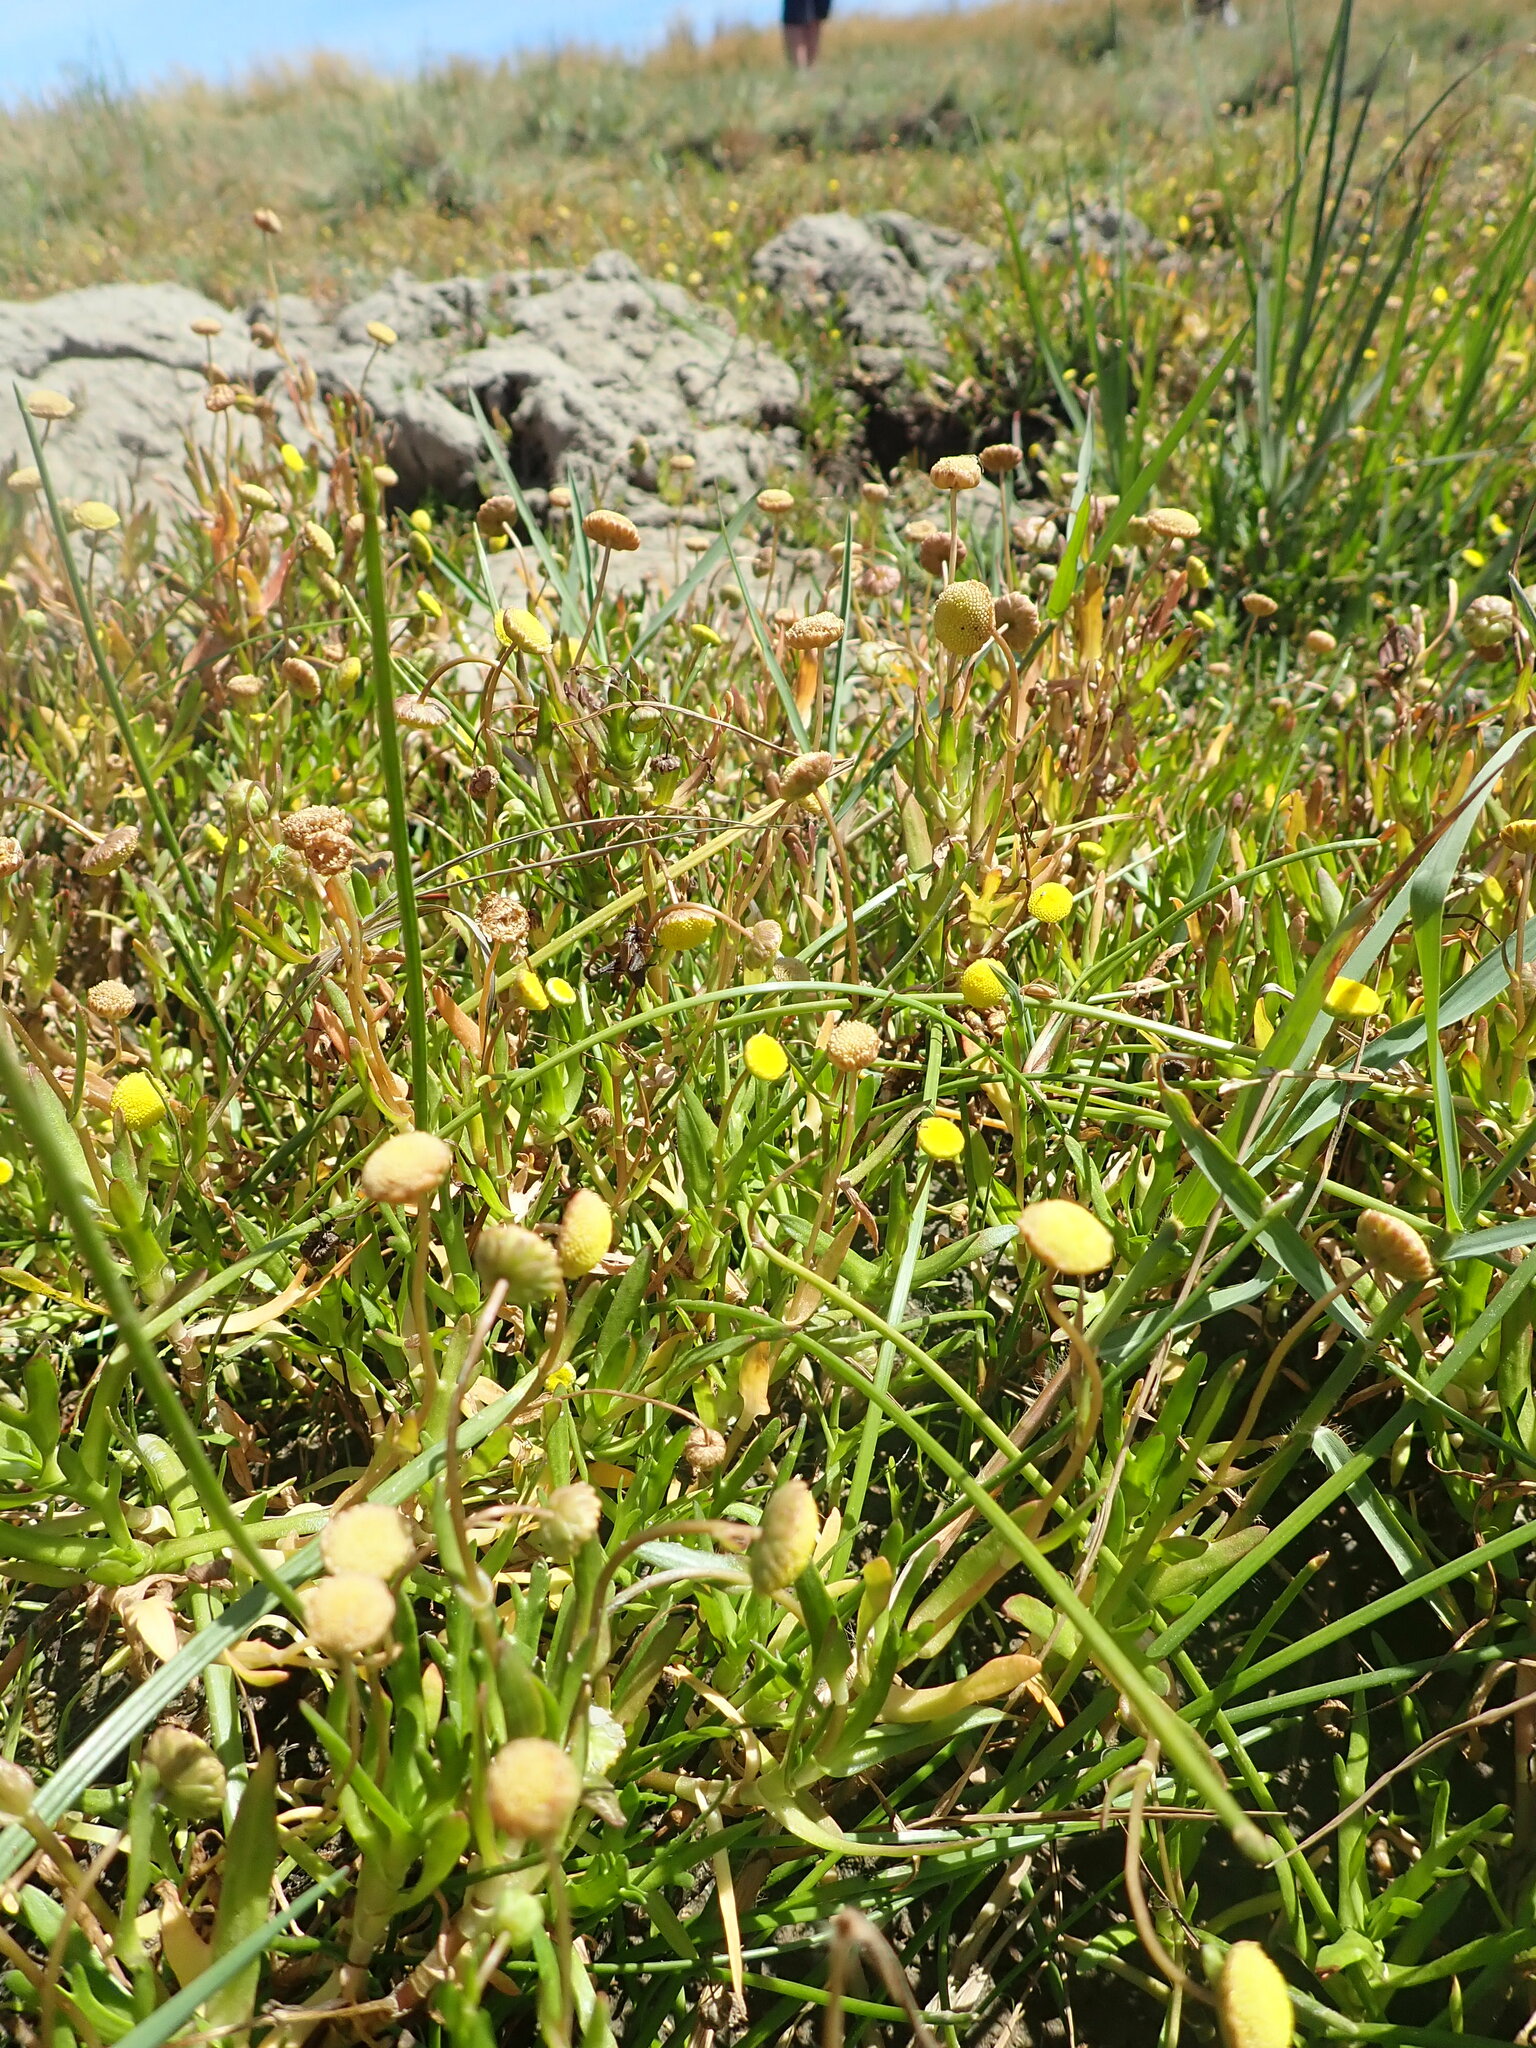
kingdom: Plantae
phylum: Tracheophyta
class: Magnoliopsida
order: Asterales
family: Asteraceae
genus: Cotula
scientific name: Cotula coronopifolia
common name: Buttonweed
